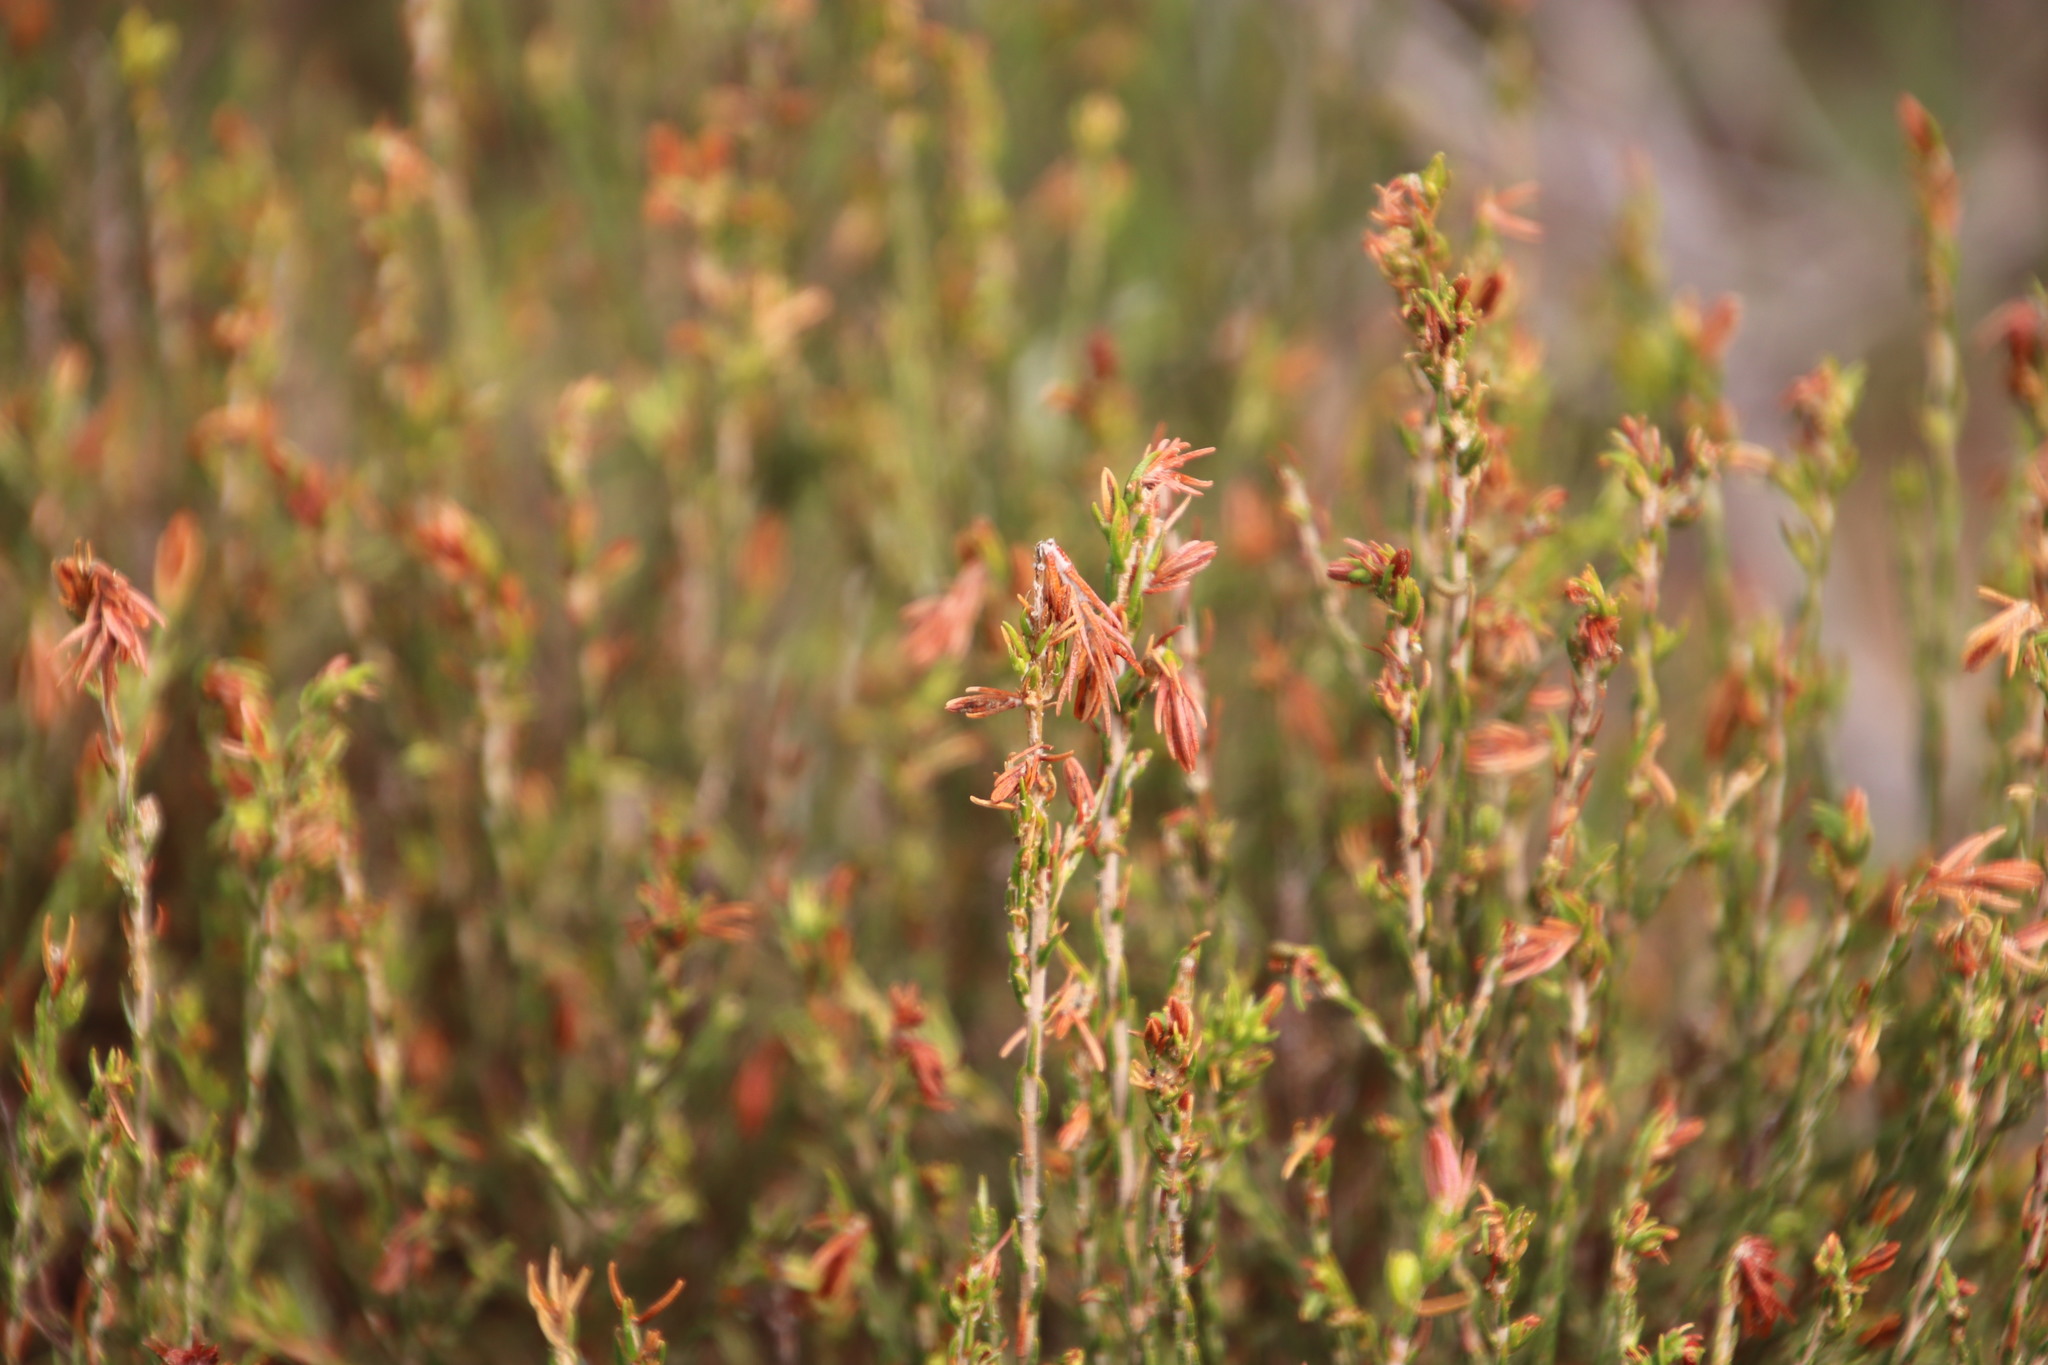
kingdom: Plantae
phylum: Tracheophyta
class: Magnoliopsida
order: Malvales
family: Thymelaeaceae
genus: Passerina
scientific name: Passerina corymbosa
